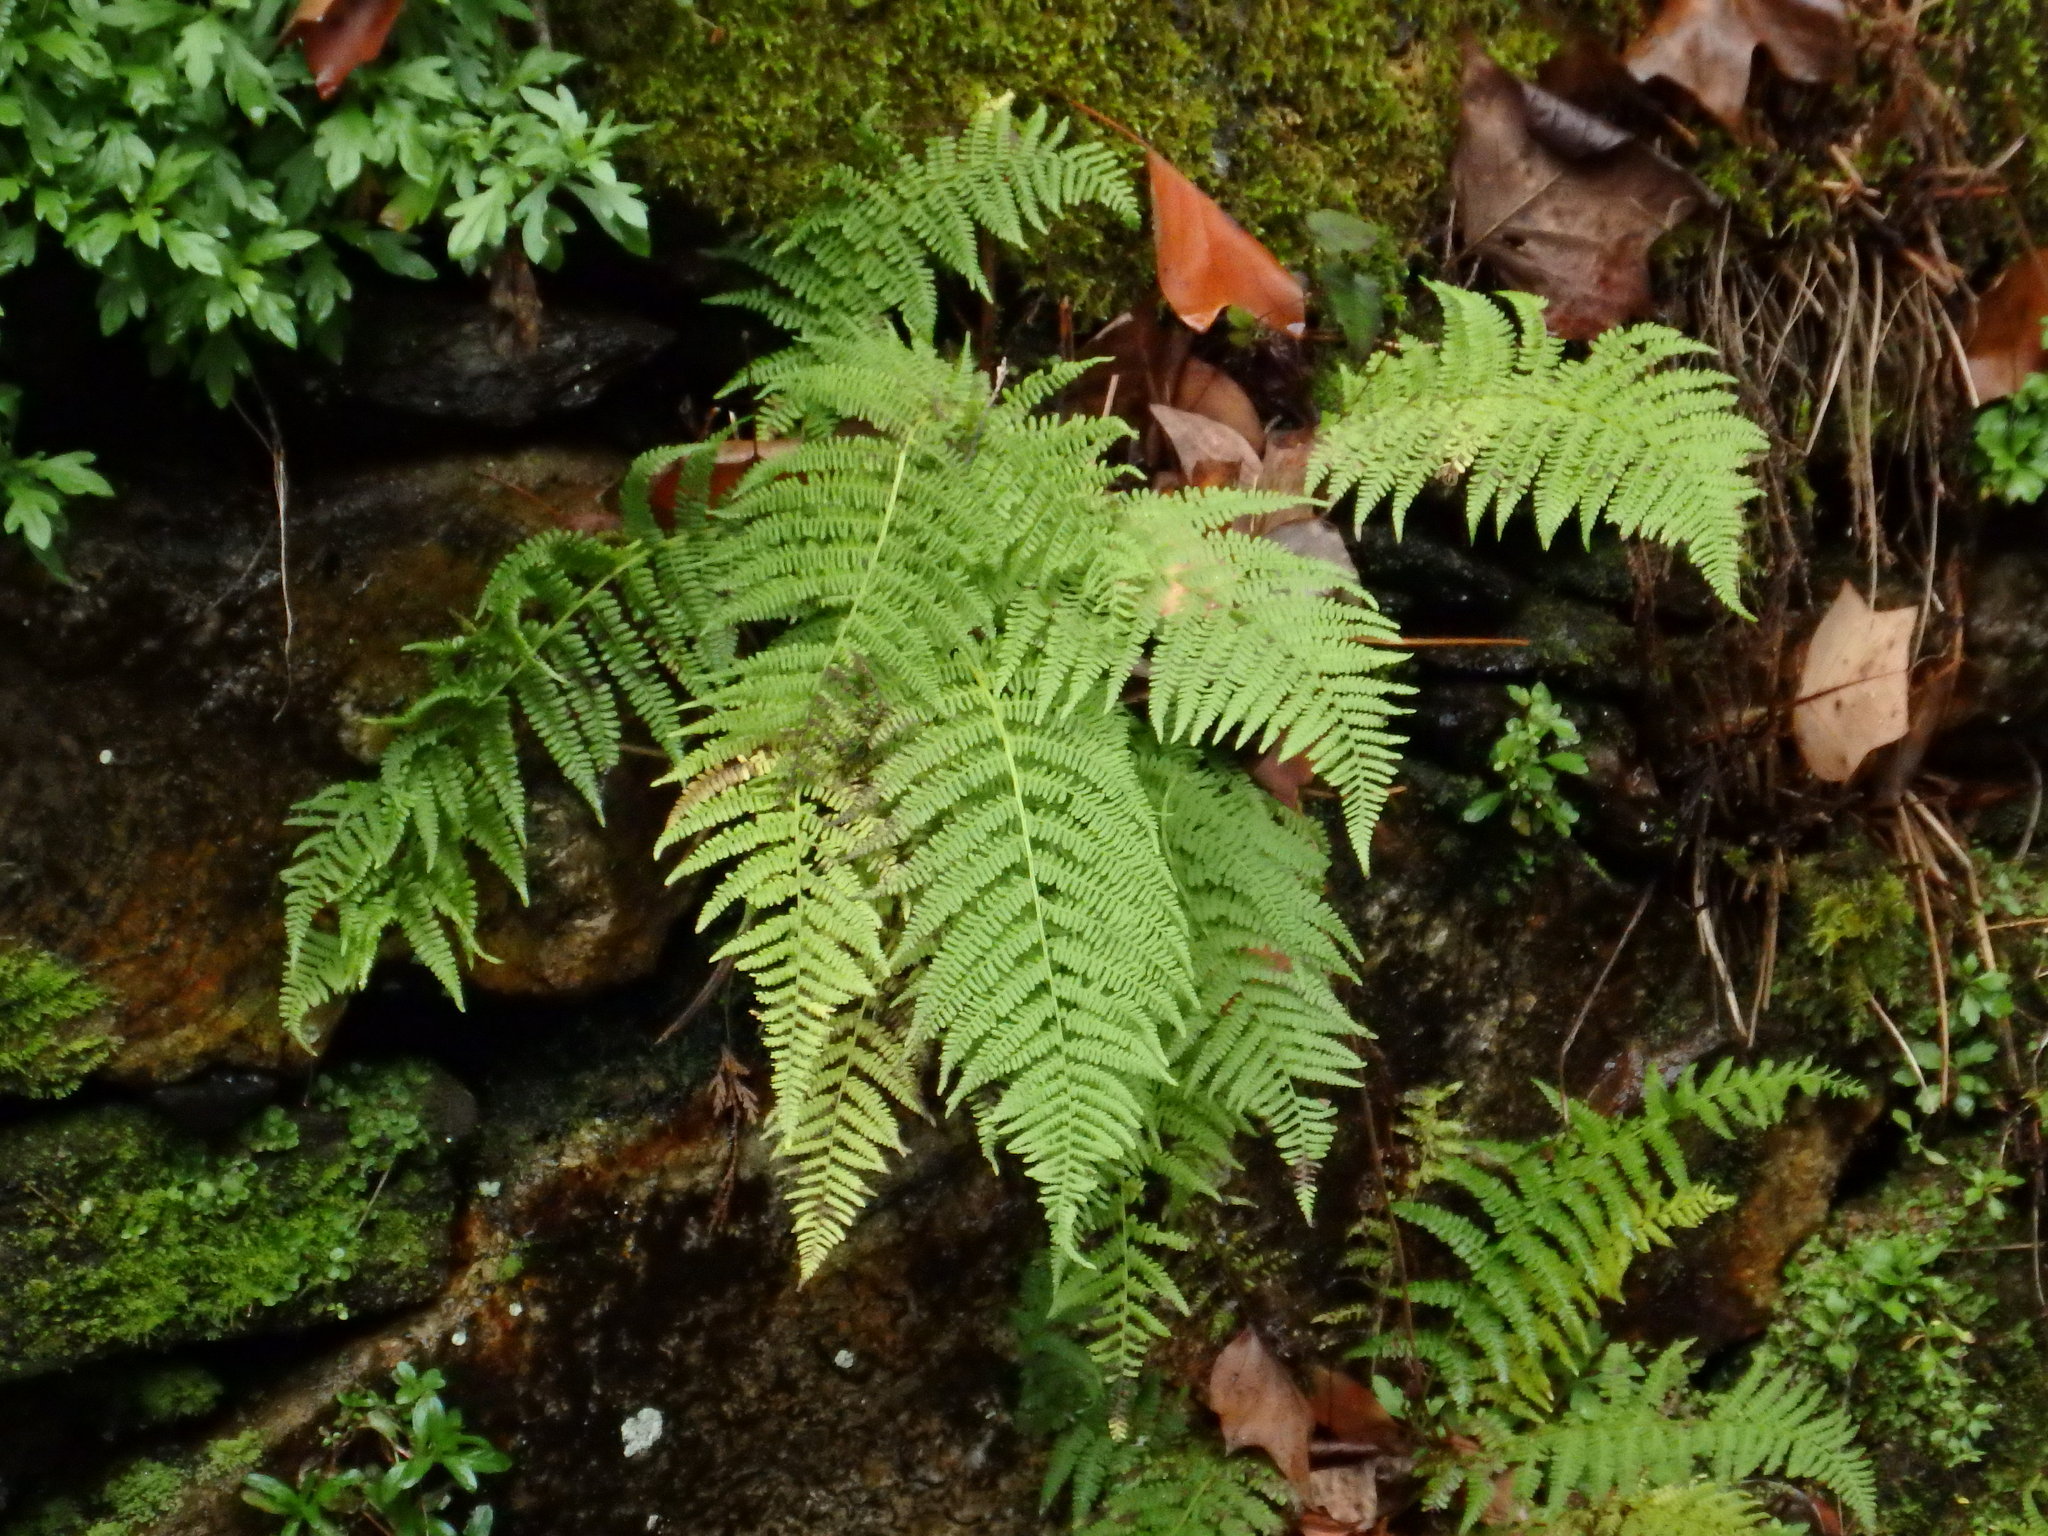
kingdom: Plantae
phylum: Tracheophyta
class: Polypodiopsida
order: Polypodiales
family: Athyriaceae
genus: Athyrium
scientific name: Athyrium filix-femina
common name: Lady fern
